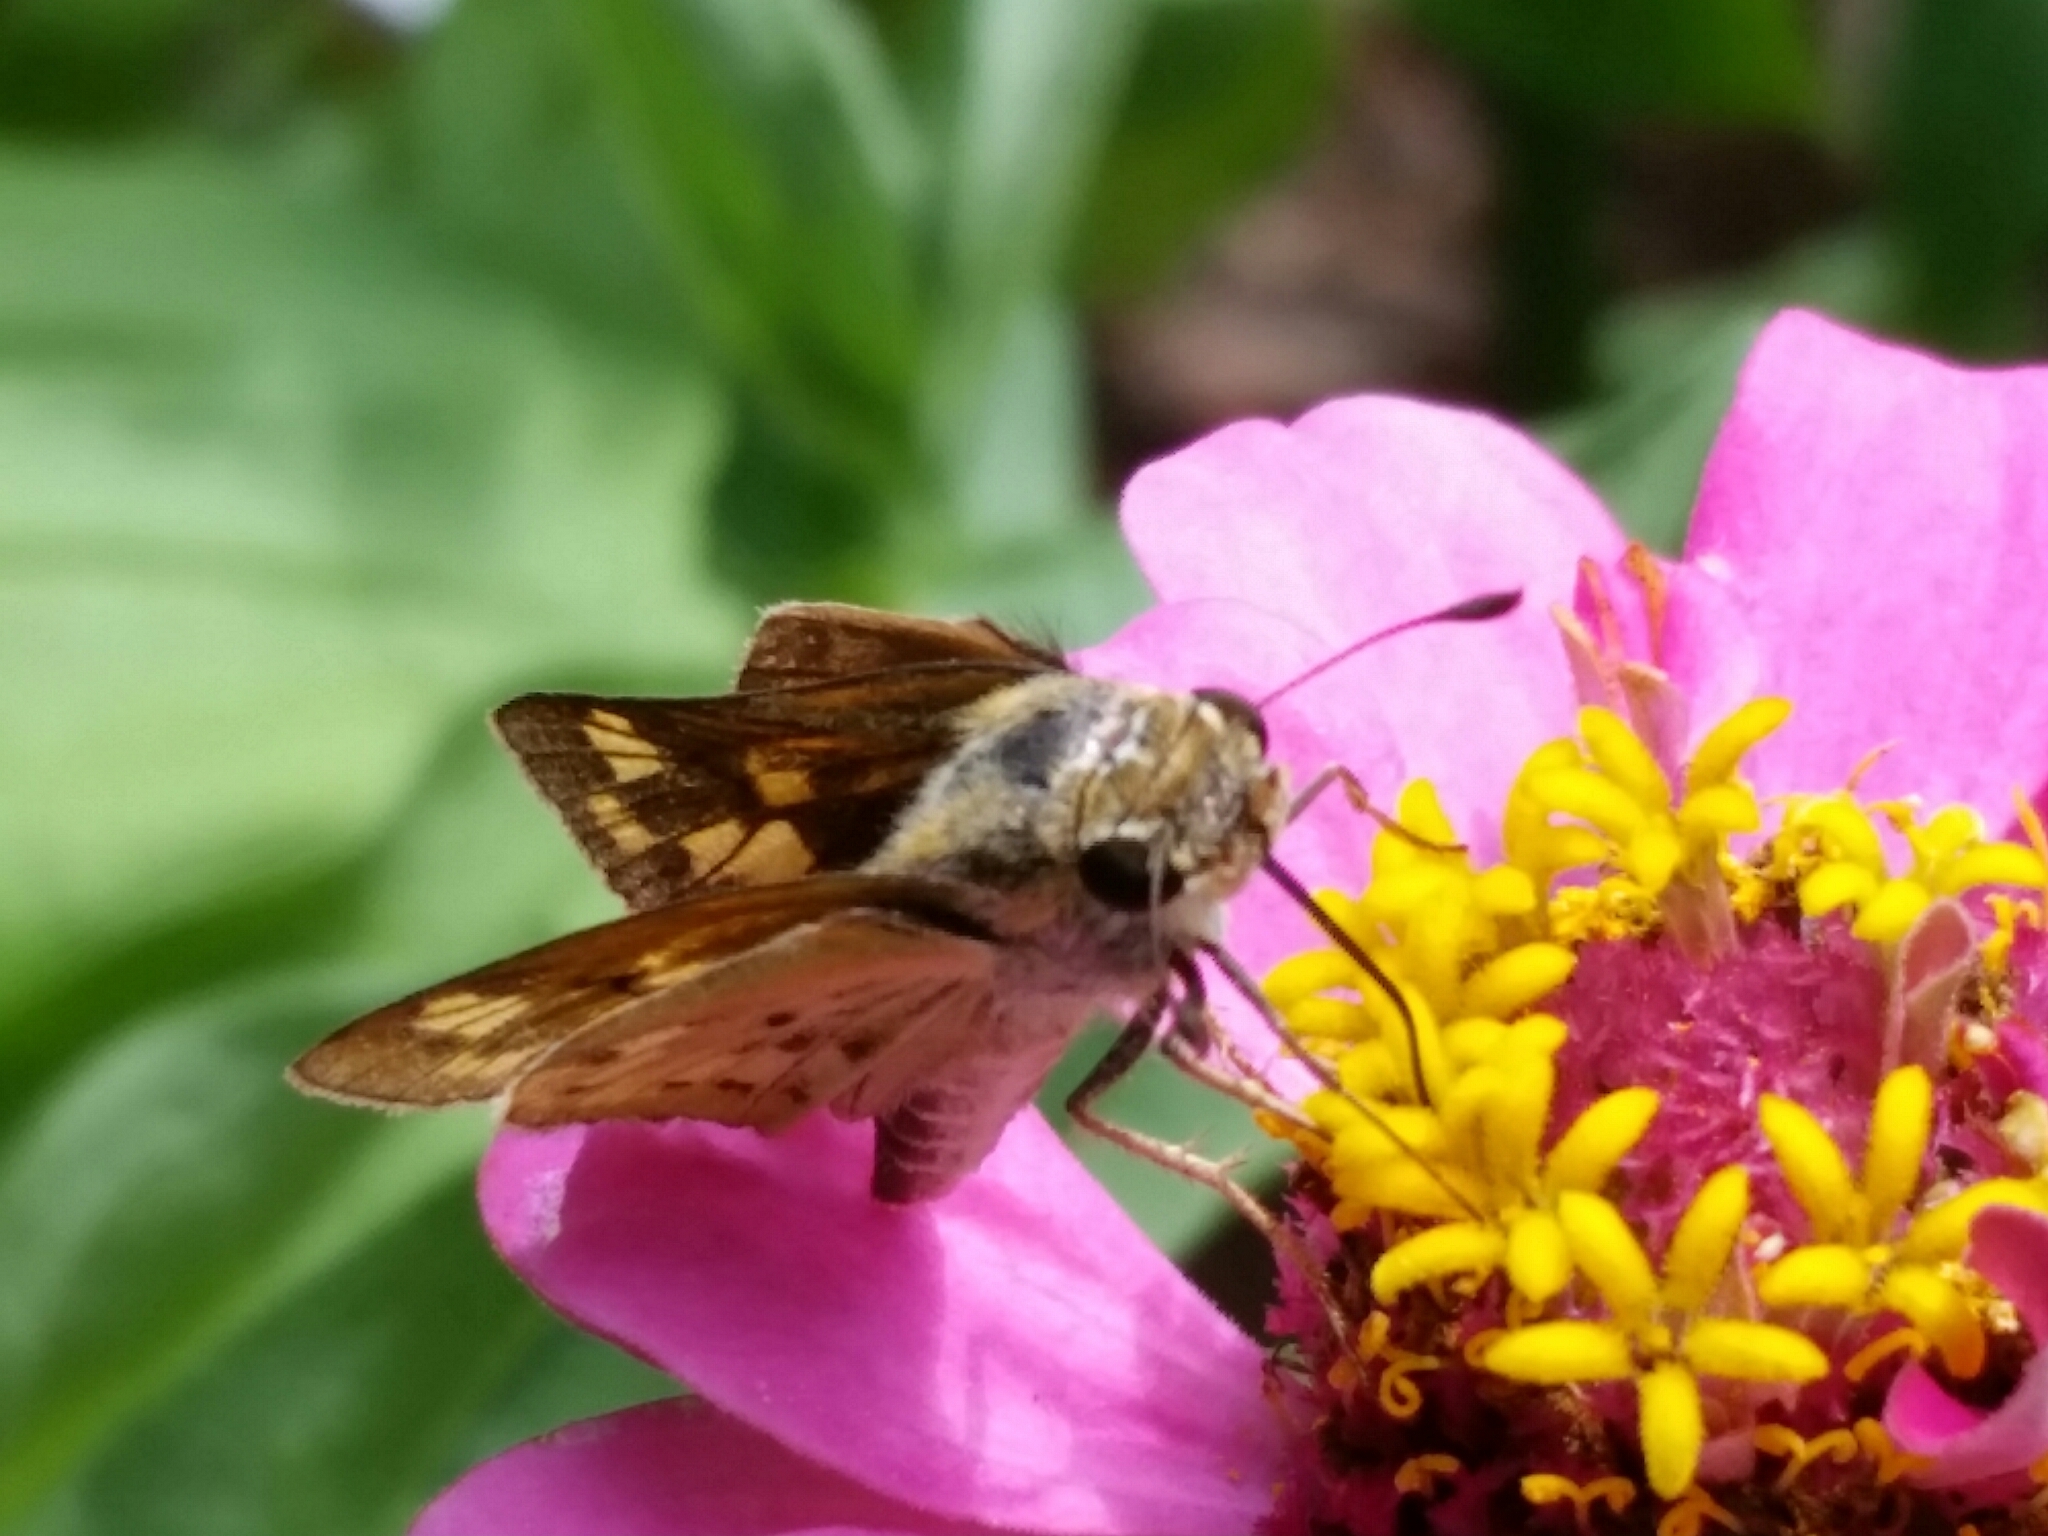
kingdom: Animalia
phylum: Arthropoda
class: Insecta
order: Lepidoptera
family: Hesperiidae
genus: Hylephila
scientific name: Hylephila phyleus
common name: Fiery skipper
